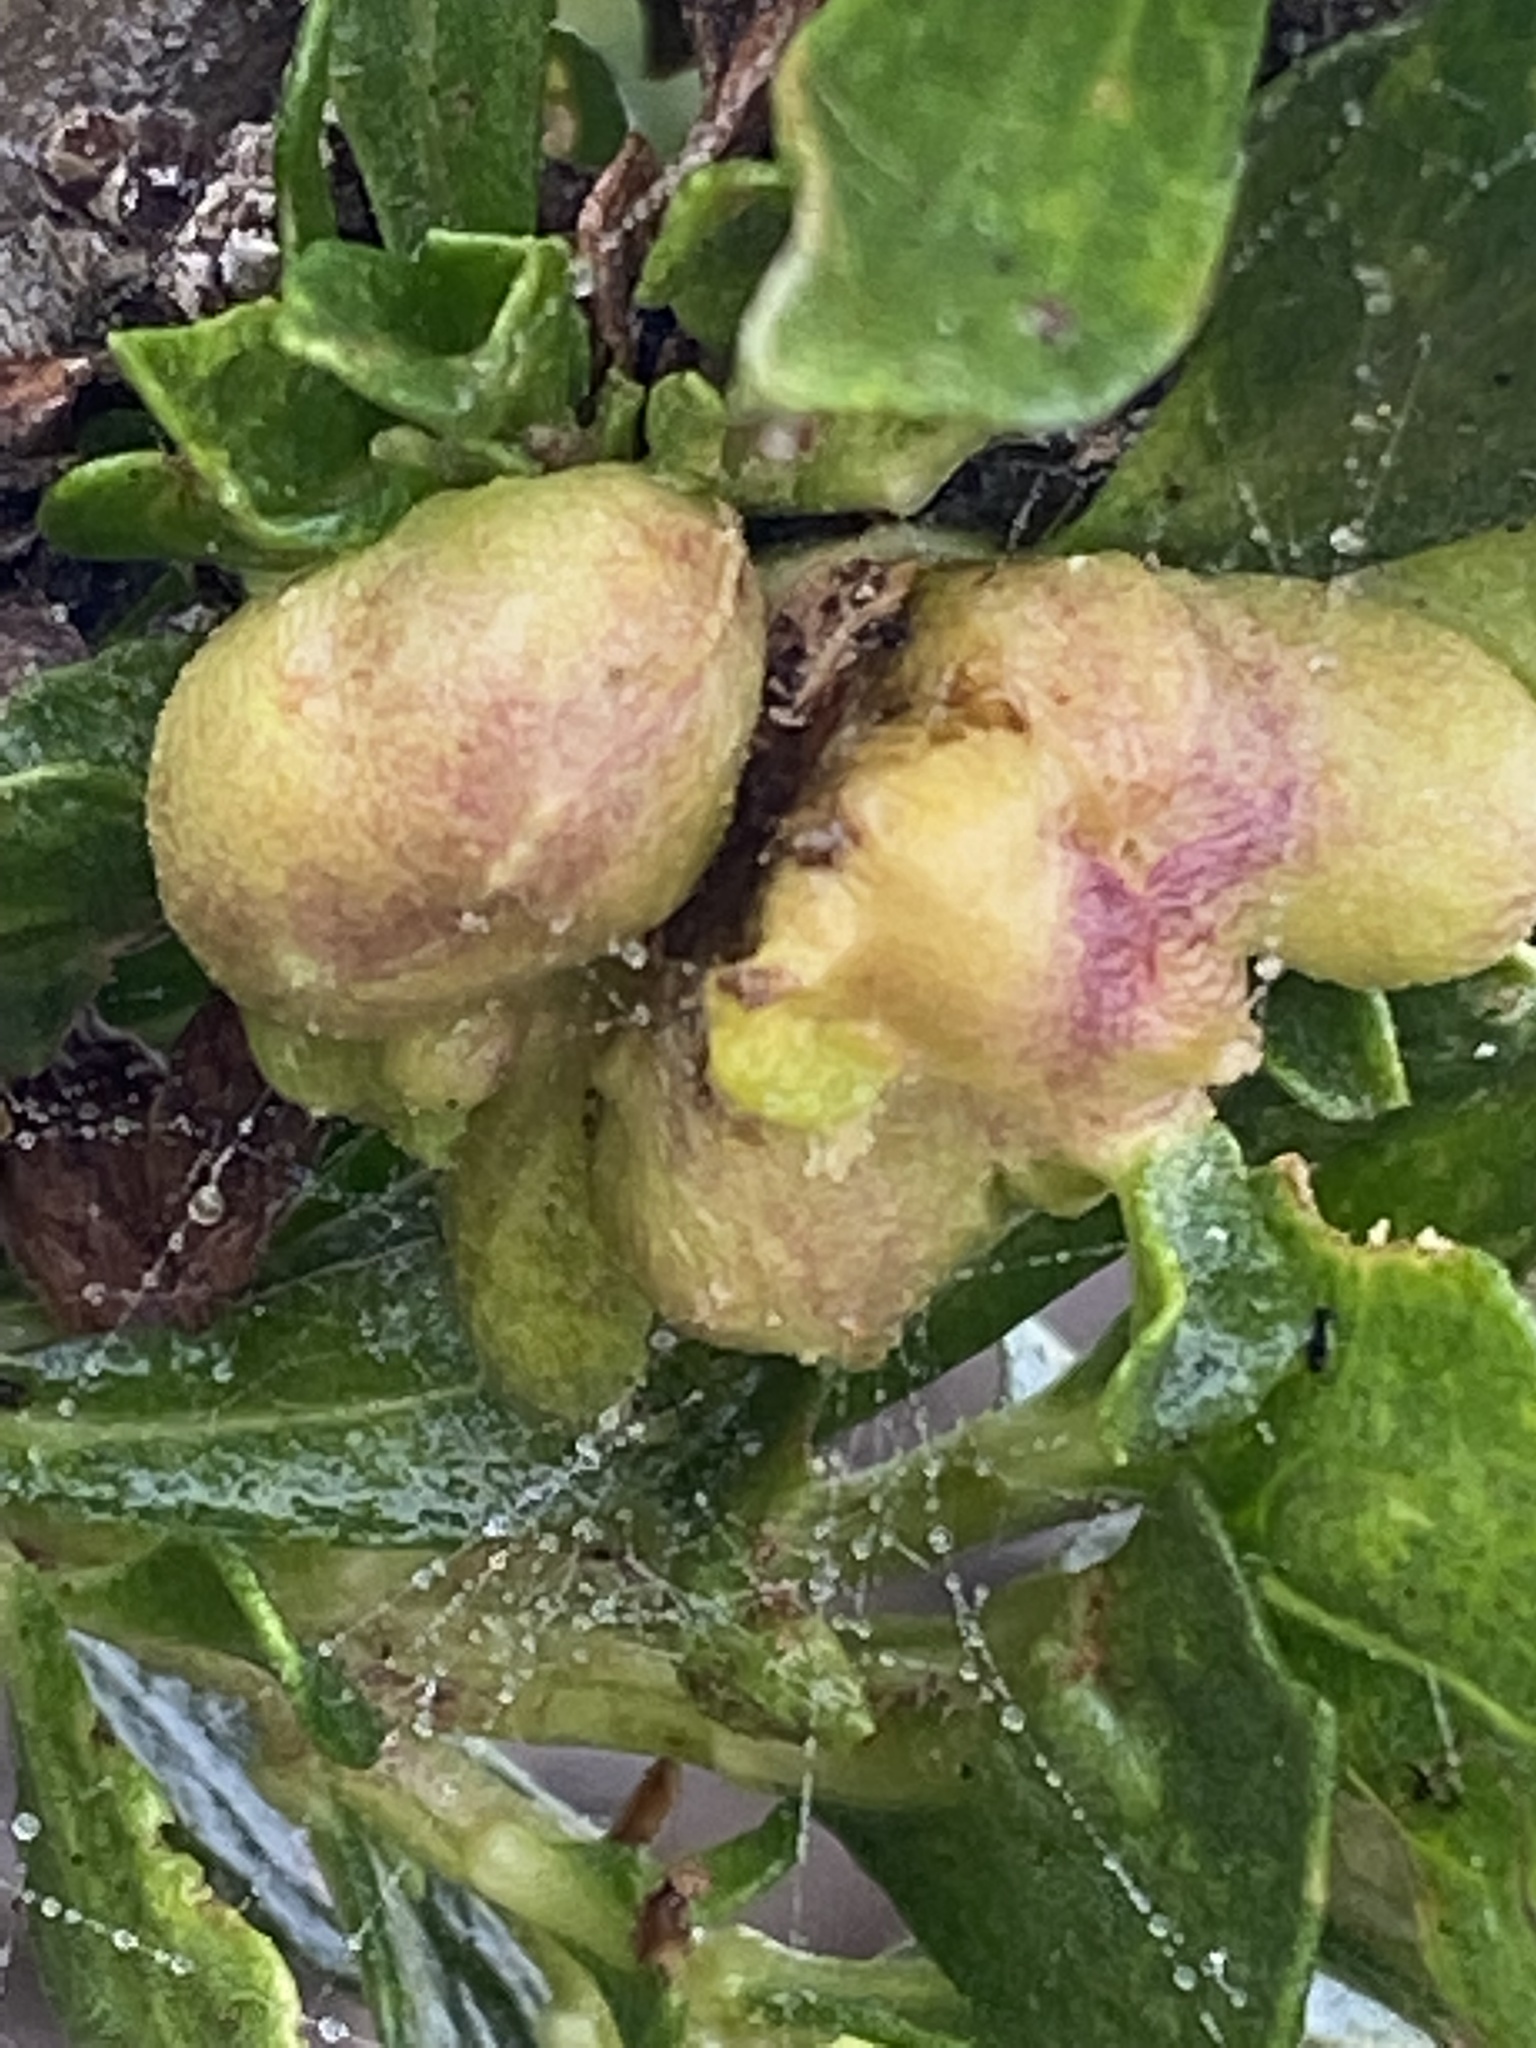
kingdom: Animalia
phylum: Arthropoda
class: Insecta
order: Diptera
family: Cecidomyiidae
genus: Rhopalomyia
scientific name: Rhopalomyia californica
